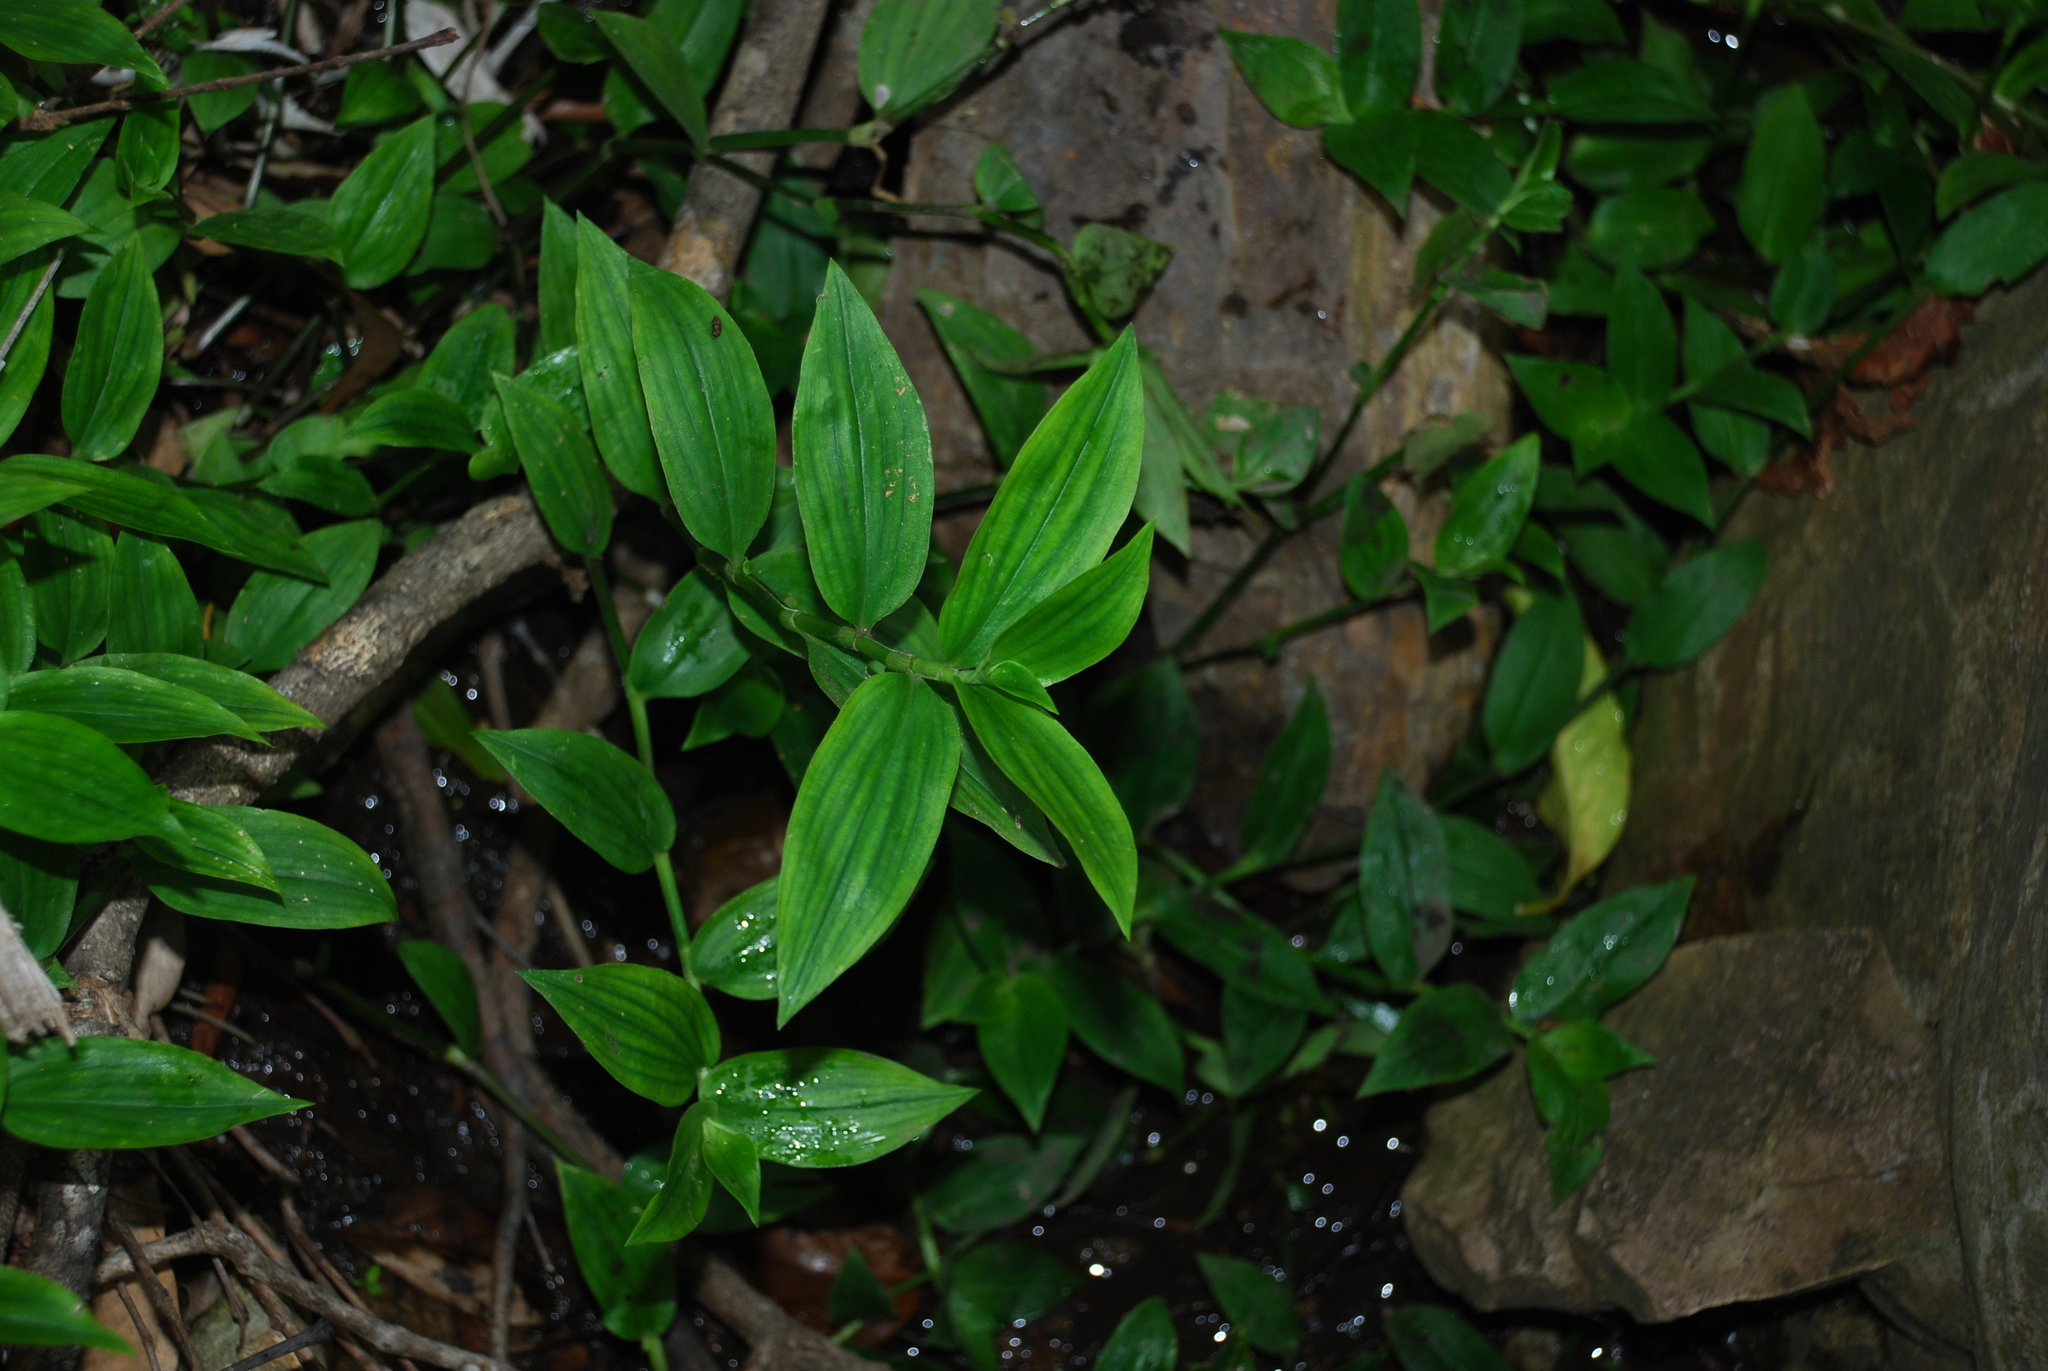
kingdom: Plantae
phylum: Tracheophyta
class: Liliopsida
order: Commelinales
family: Commelinaceae
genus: Tradescantia
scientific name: Tradescantia fluminensis
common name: Wandering-jew
